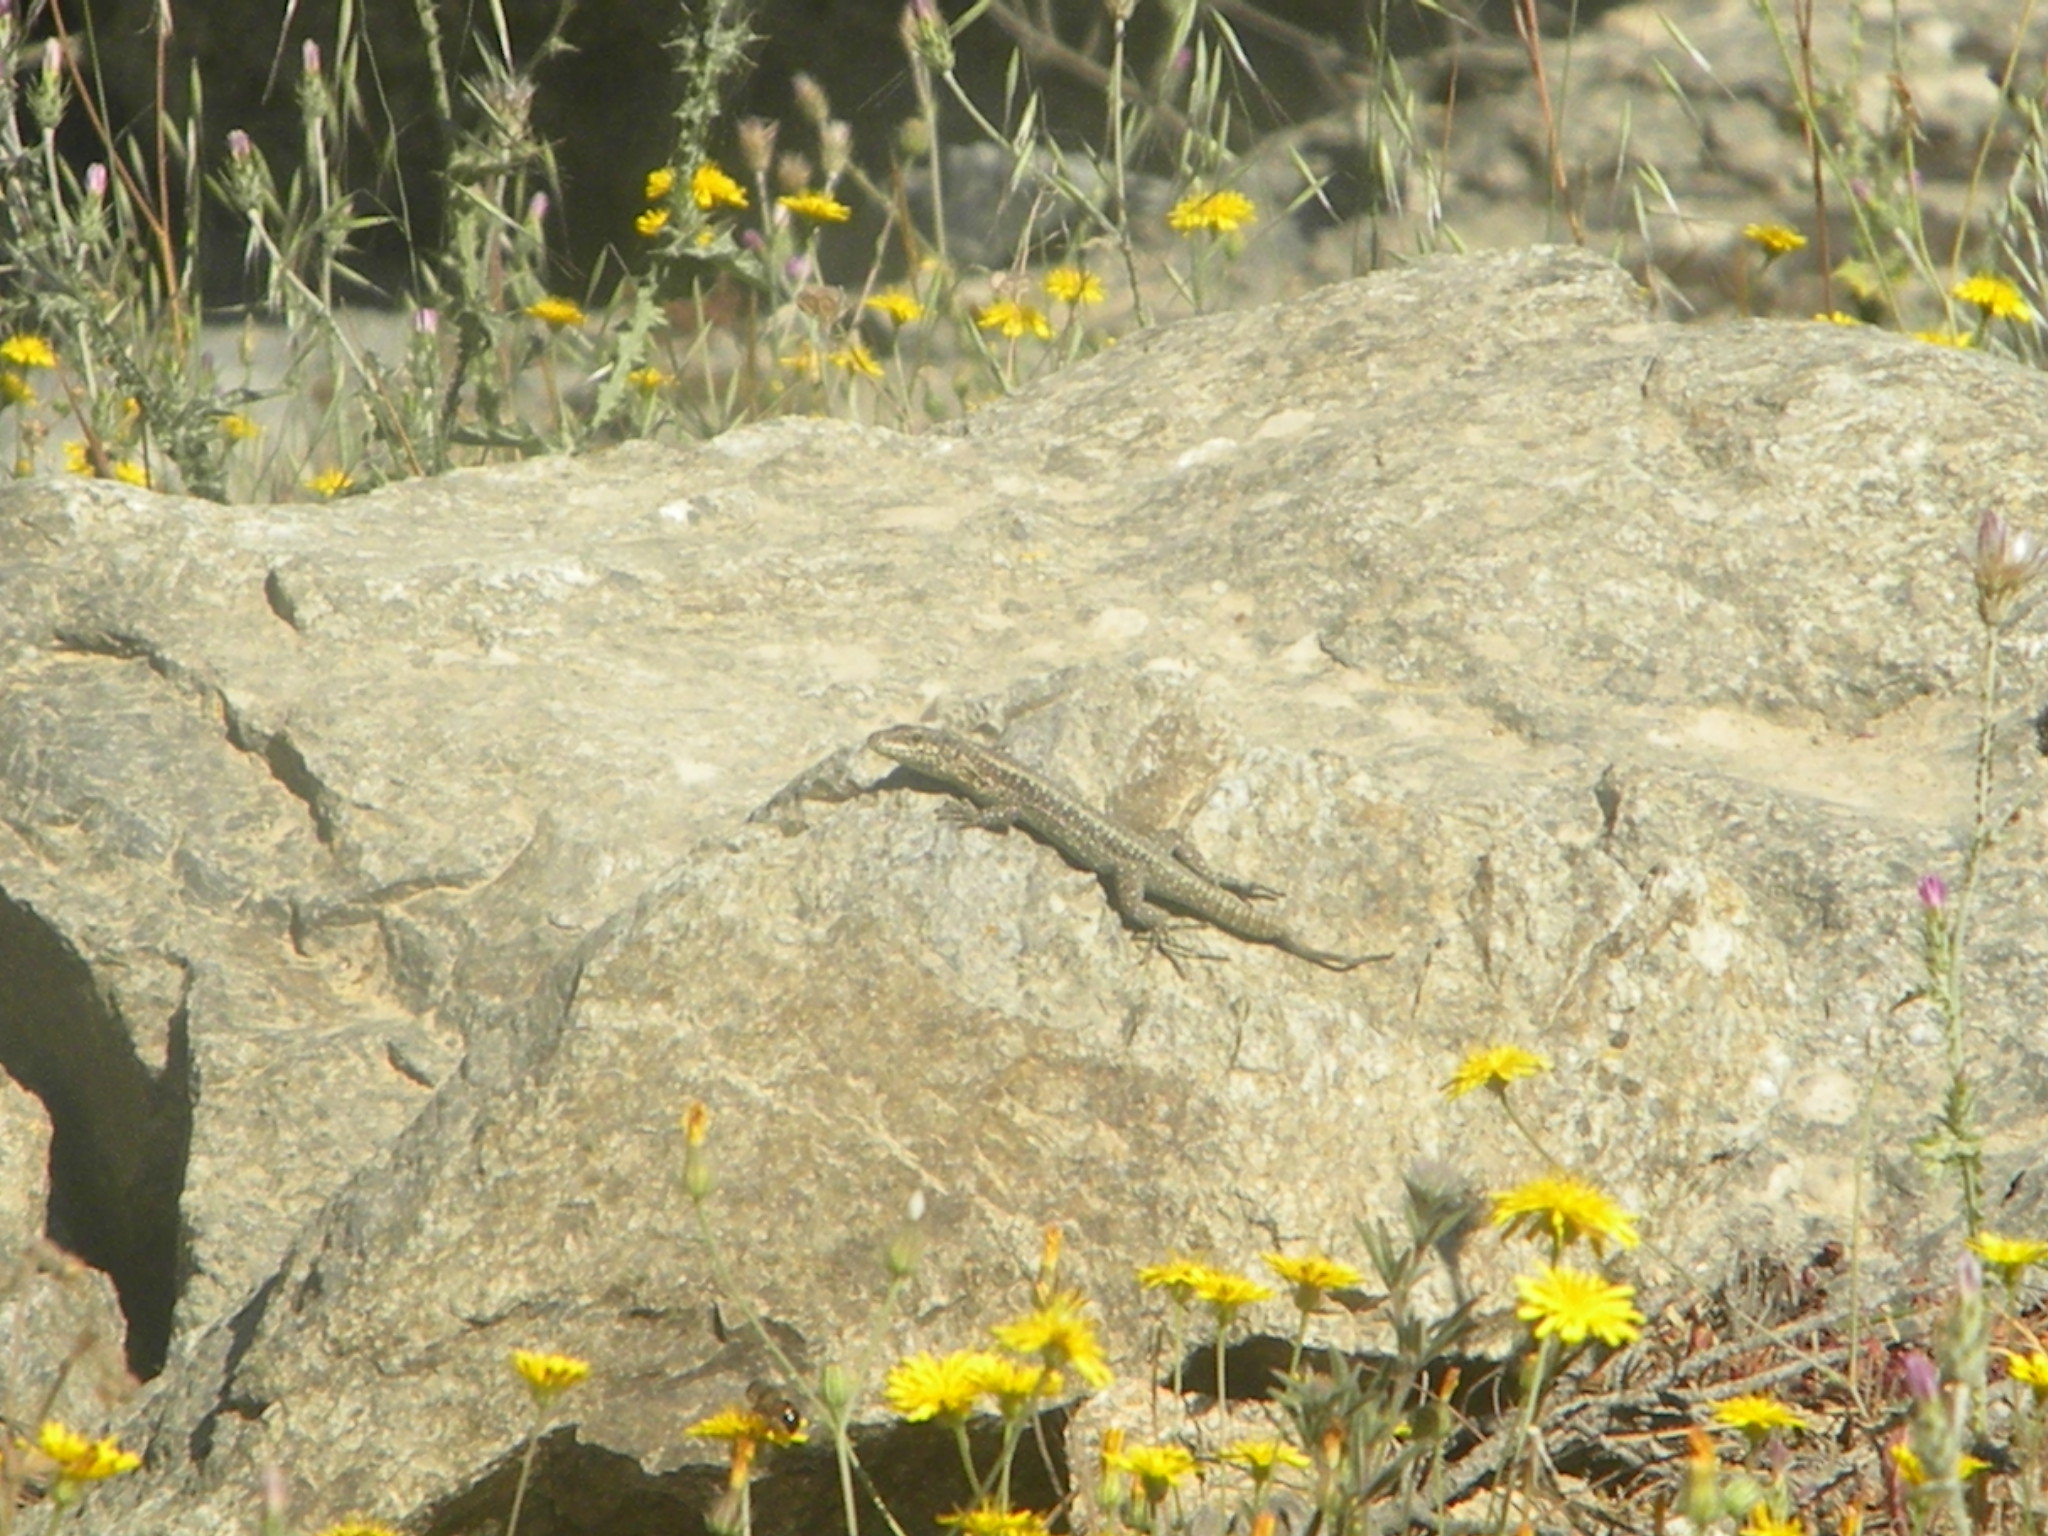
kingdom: Animalia
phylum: Chordata
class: Squamata
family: Lacertidae
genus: Anatololacerta
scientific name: Anatololacerta anatolica
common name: Anatolian rock lizard
